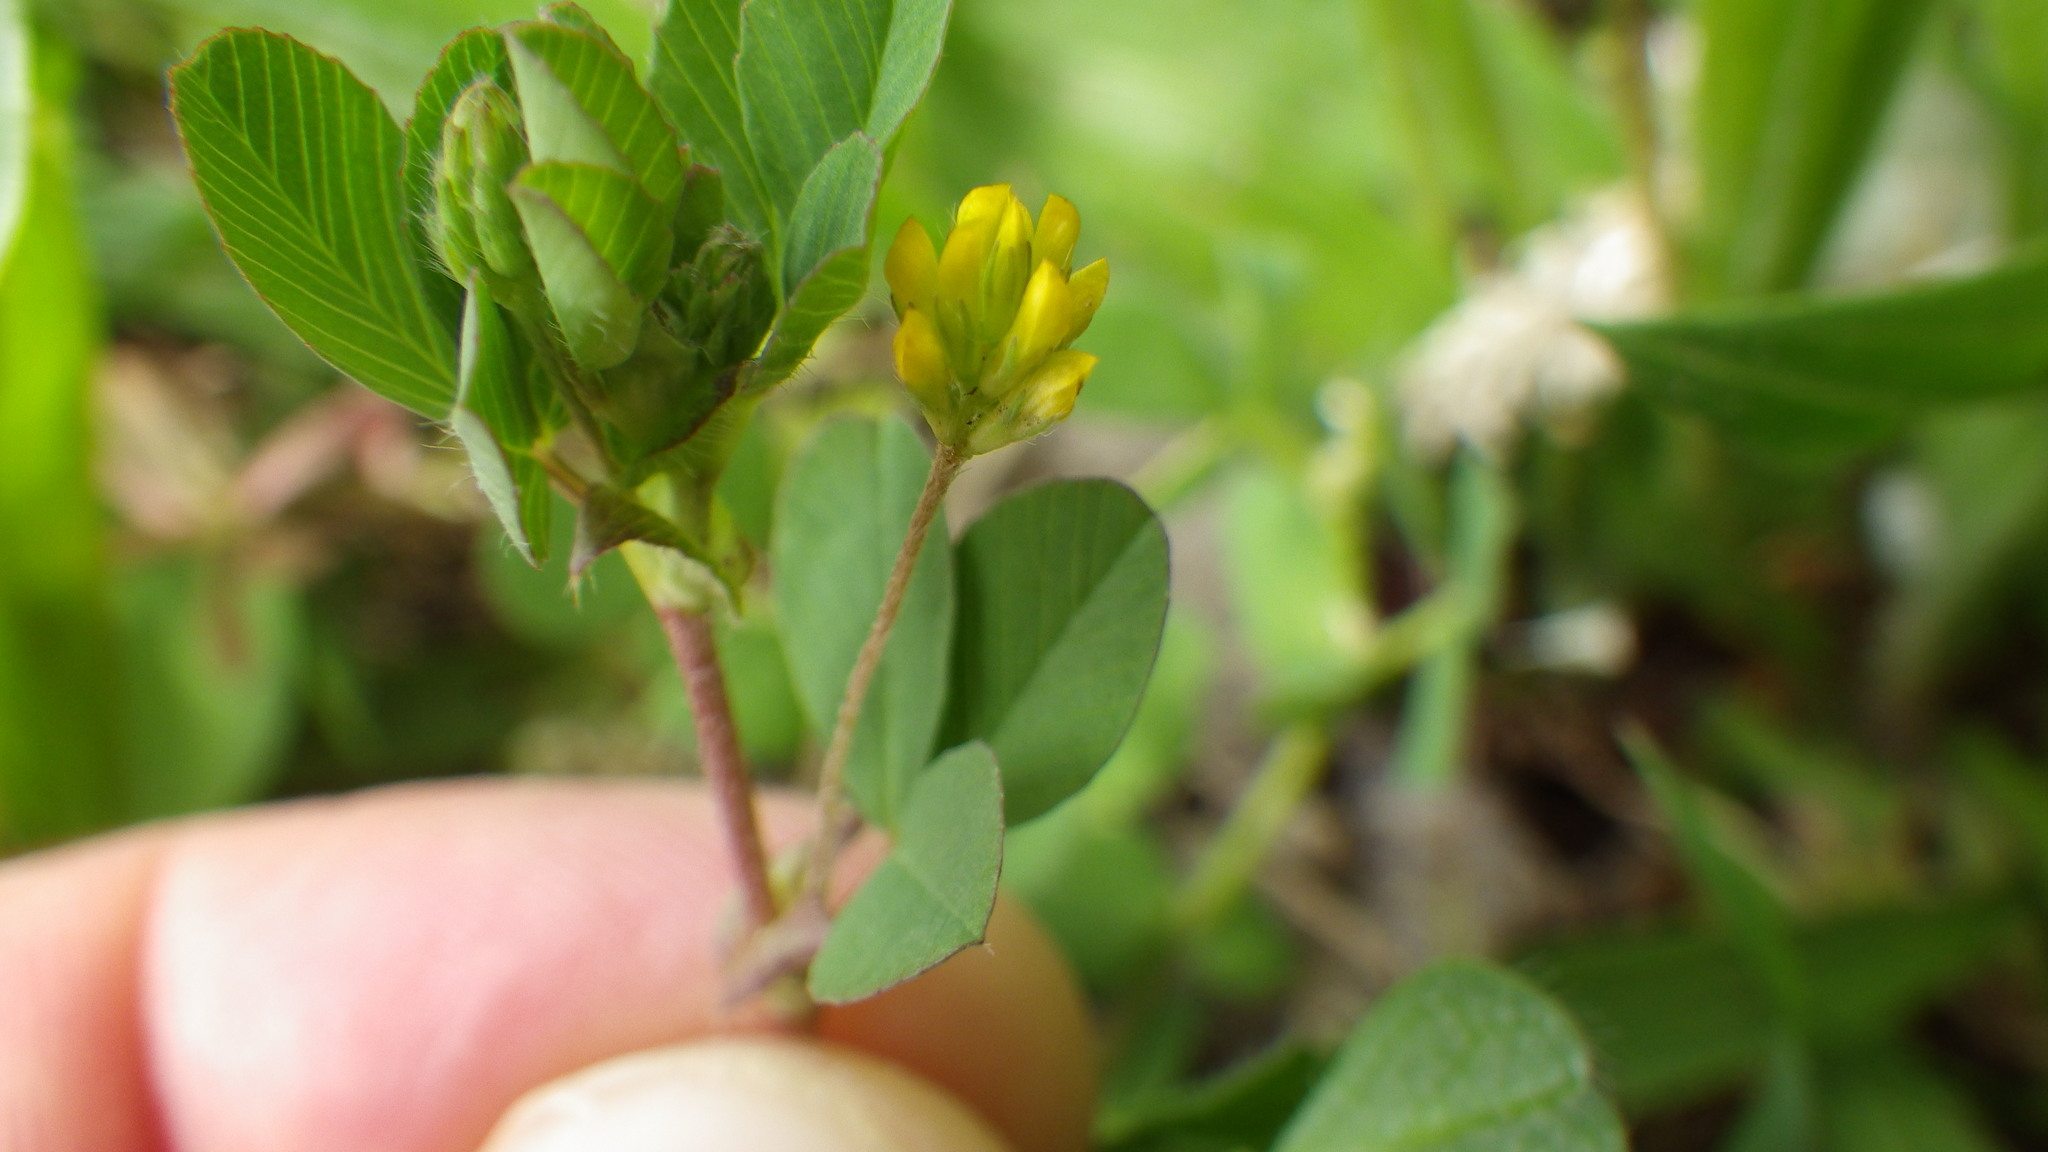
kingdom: Plantae
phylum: Tracheophyta
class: Magnoliopsida
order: Fabales
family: Fabaceae
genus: Trifolium
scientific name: Trifolium dubium
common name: Suckling clover
